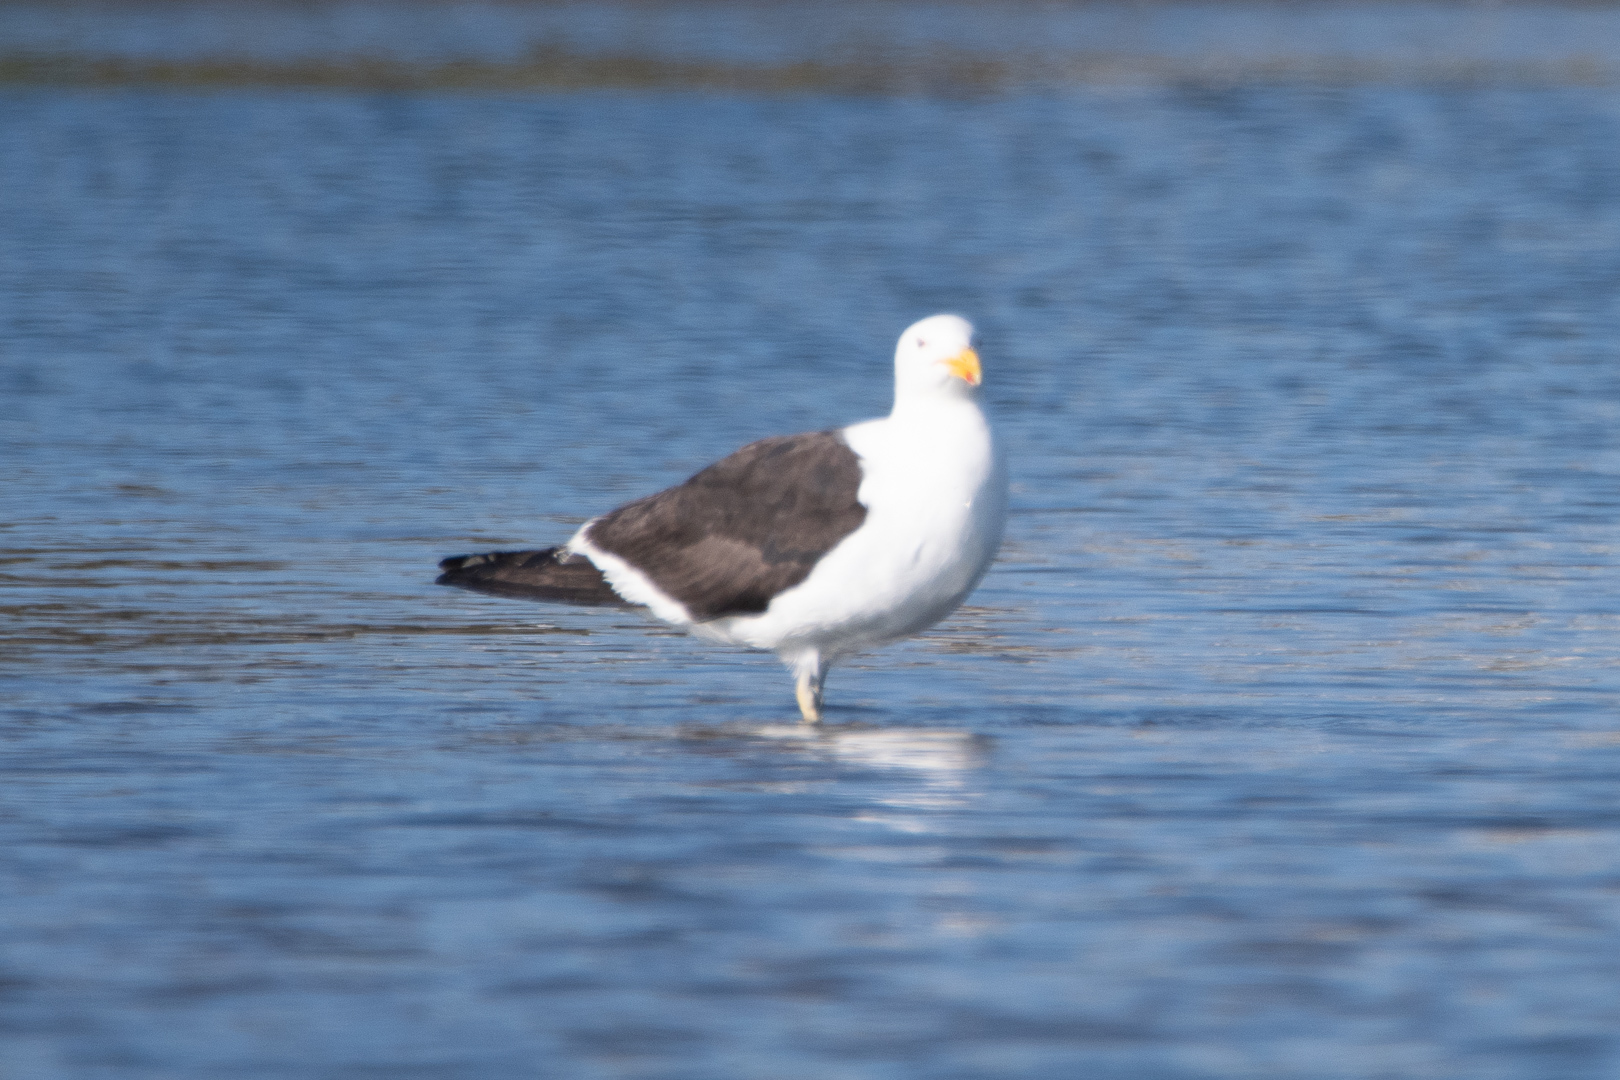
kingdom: Animalia
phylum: Chordata
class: Aves
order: Charadriiformes
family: Laridae
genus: Larus
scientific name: Larus dominicanus
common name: Kelp gull
